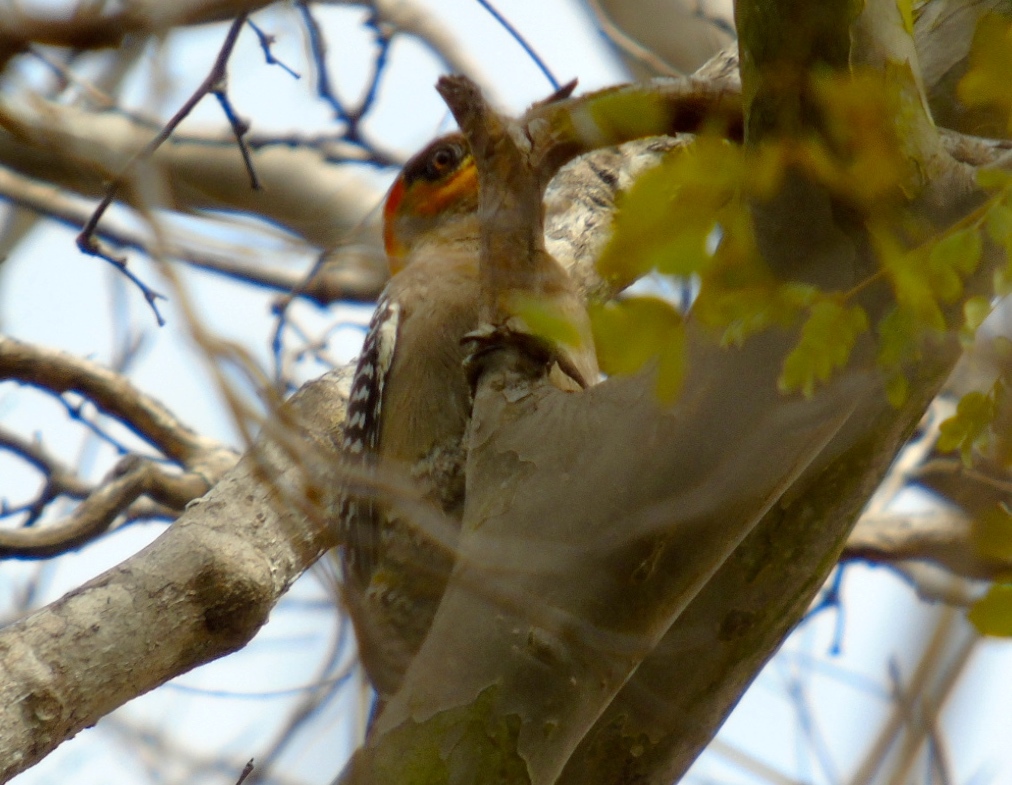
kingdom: Animalia
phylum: Chordata
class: Aves
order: Piciformes
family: Picidae
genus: Melanerpes
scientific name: Melanerpes chrysogenys
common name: Golden-cheeked woodpecker
